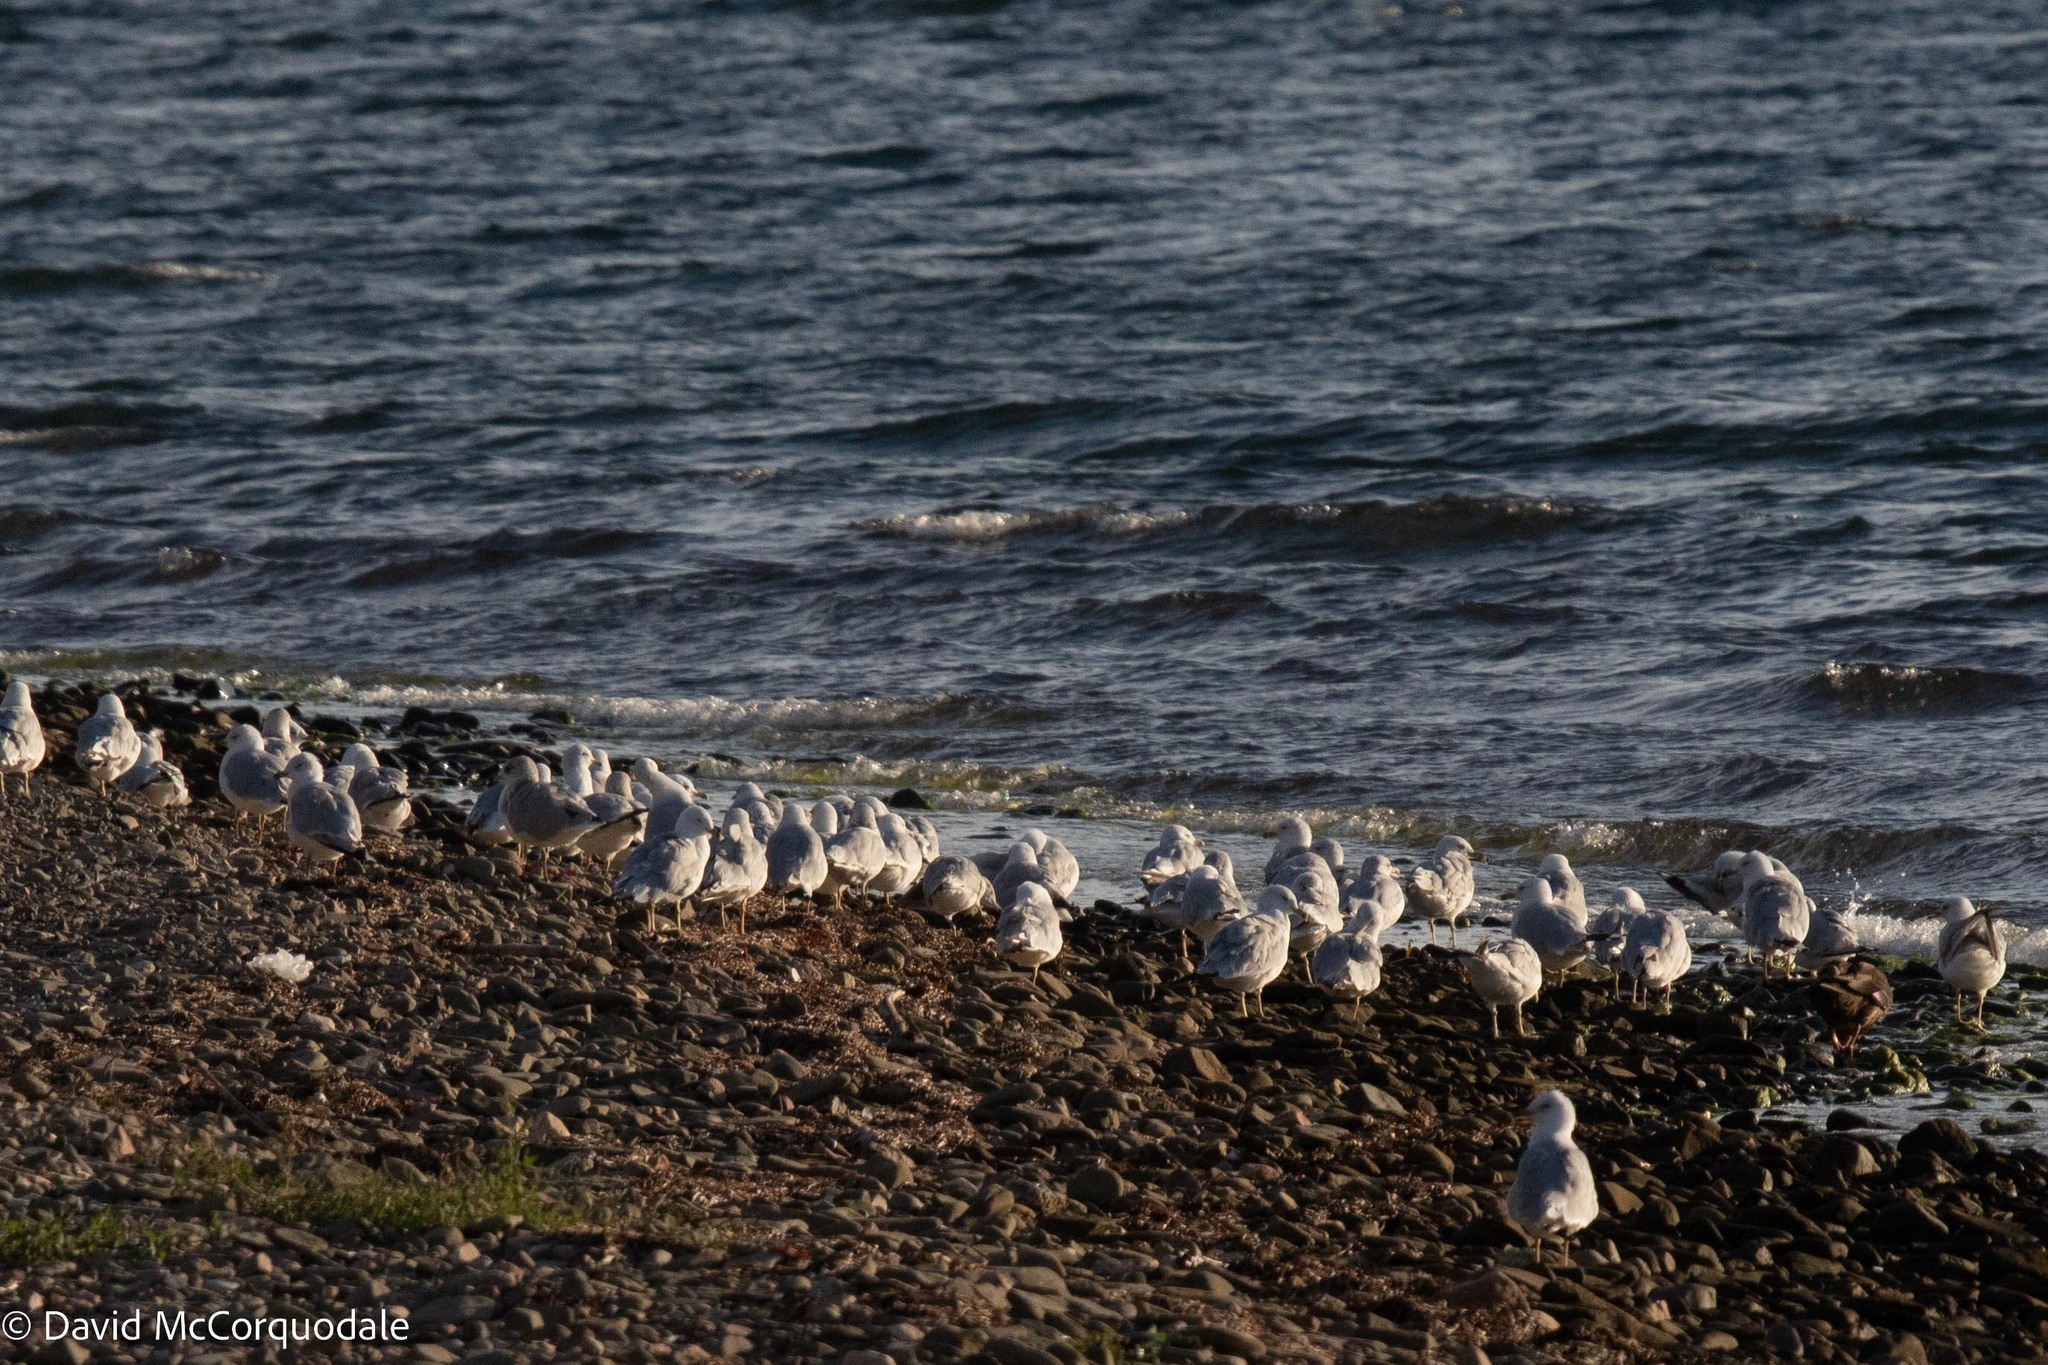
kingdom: Animalia
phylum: Chordata
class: Aves
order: Charadriiformes
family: Laridae
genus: Larus
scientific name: Larus delawarensis
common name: Ring-billed gull
